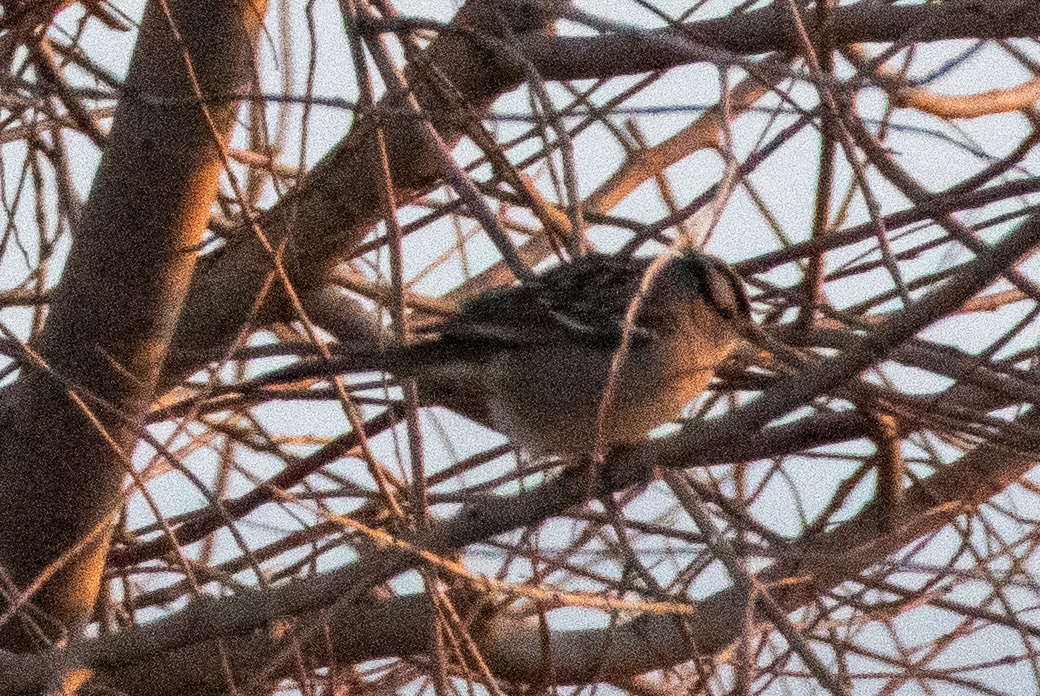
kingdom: Animalia
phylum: Chordata
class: Aves
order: Passeriformes
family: Passerellidae
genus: Zonotrichia
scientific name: Zonotrichia leucophrys
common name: White-crowned sparrow
